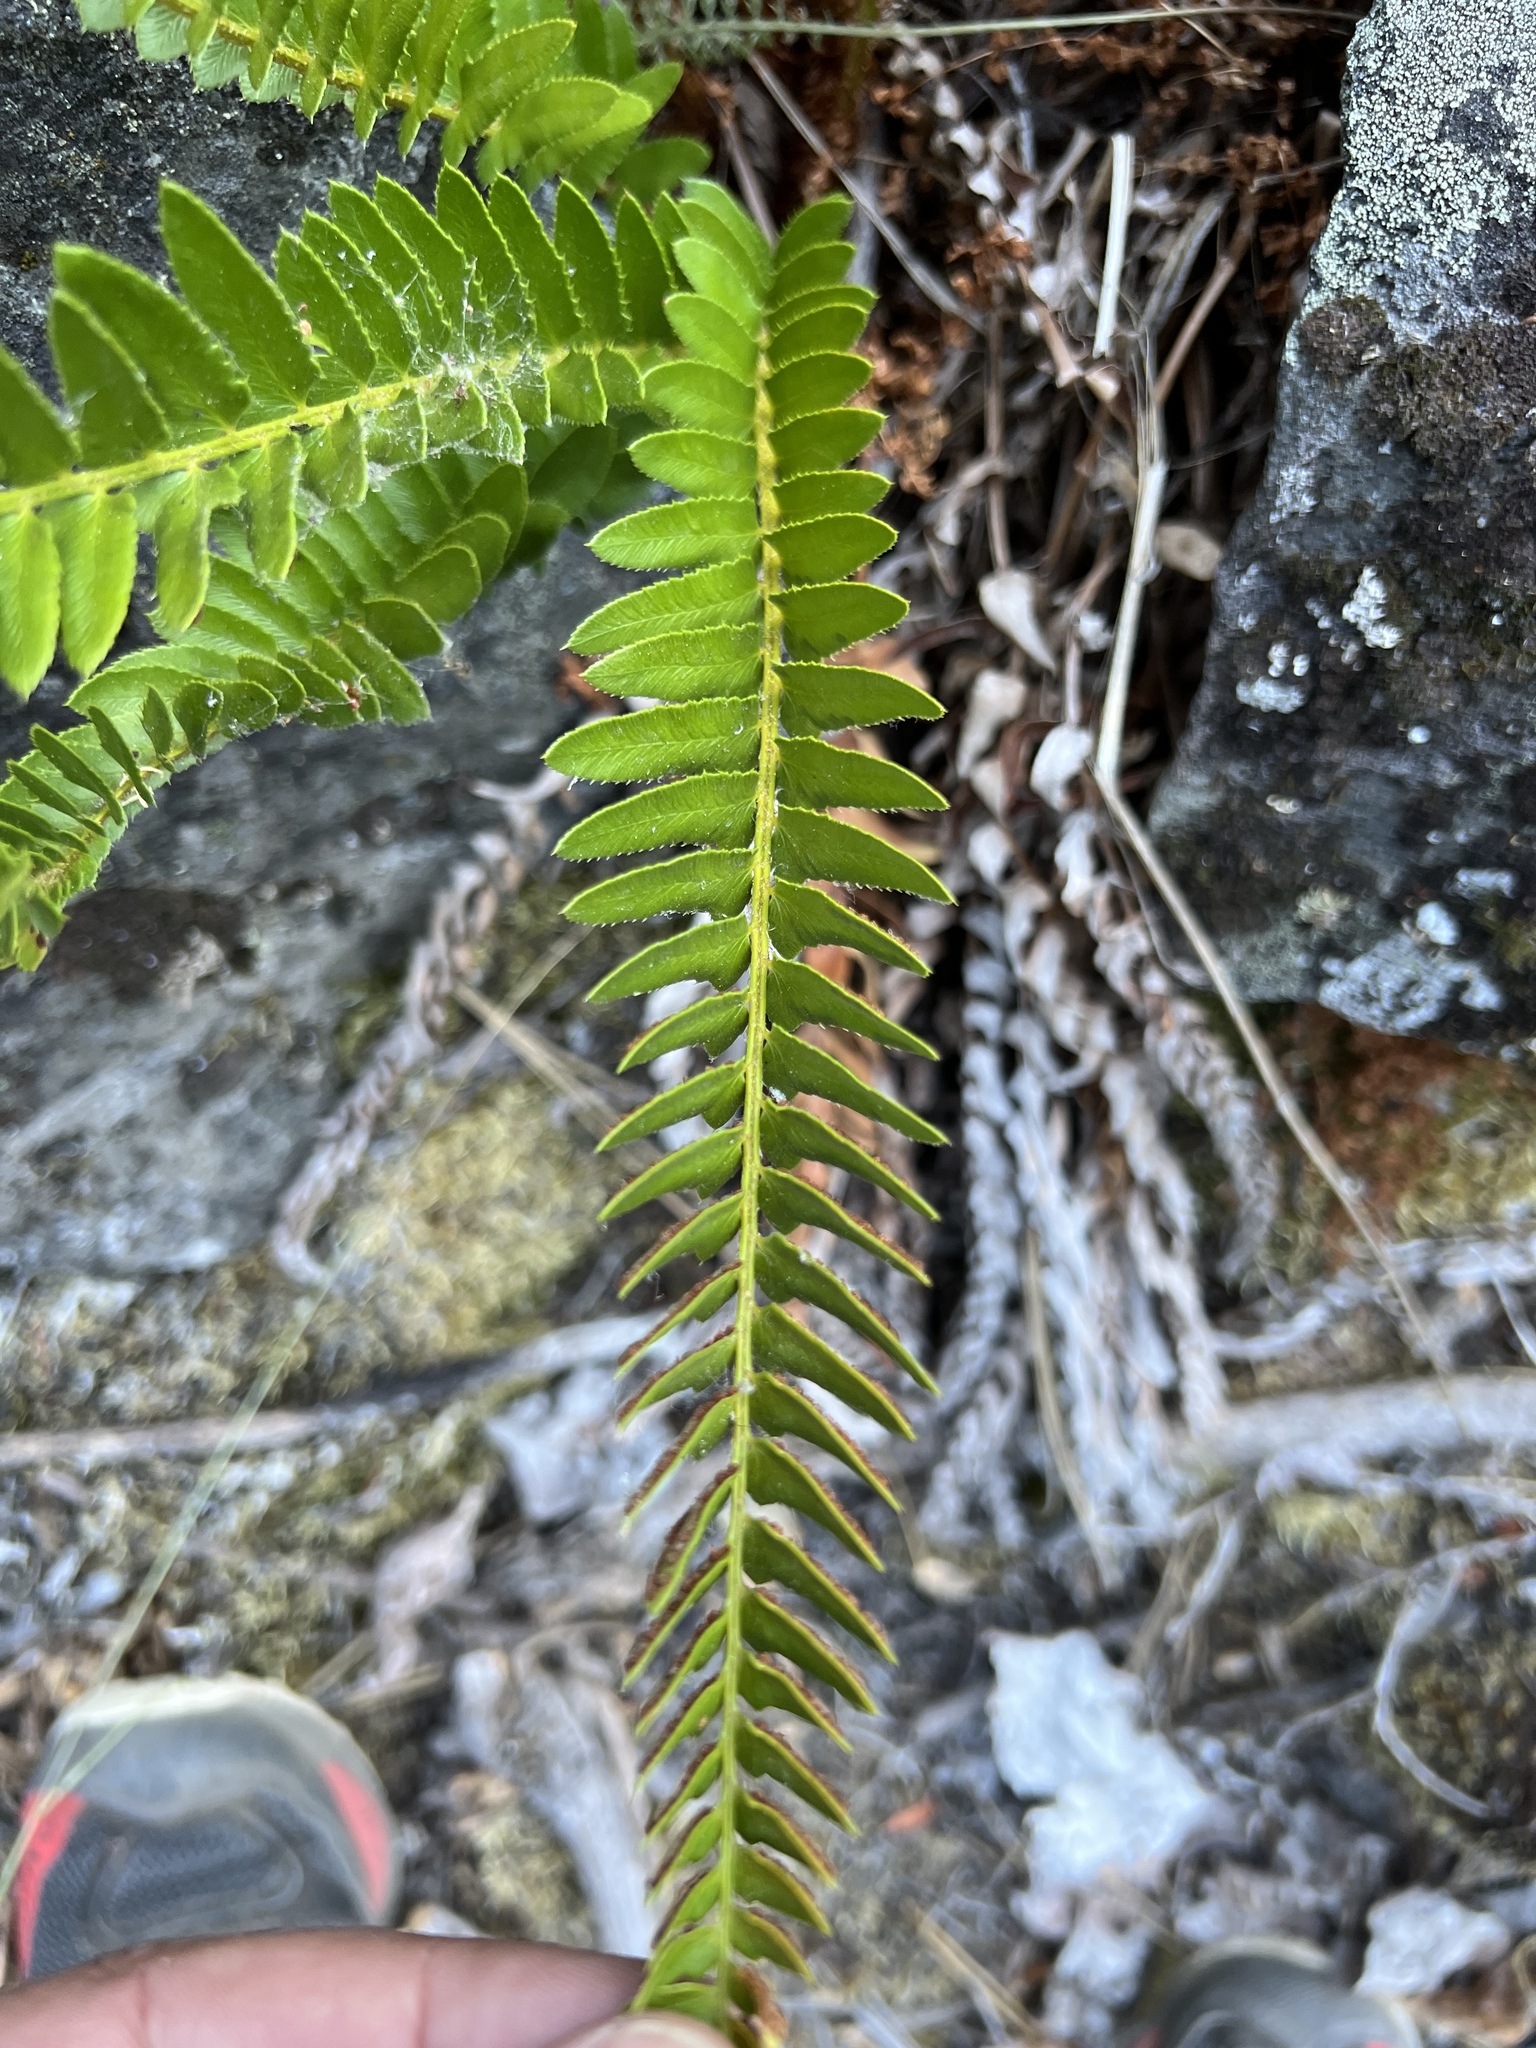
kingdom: Plantae
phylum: Tracheophyta
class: Polypodiopsida
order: Polypodiales
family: Dryopteridaceae
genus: Polystichum
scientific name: Polystichum imbricans
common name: Dwarf western sword fern
